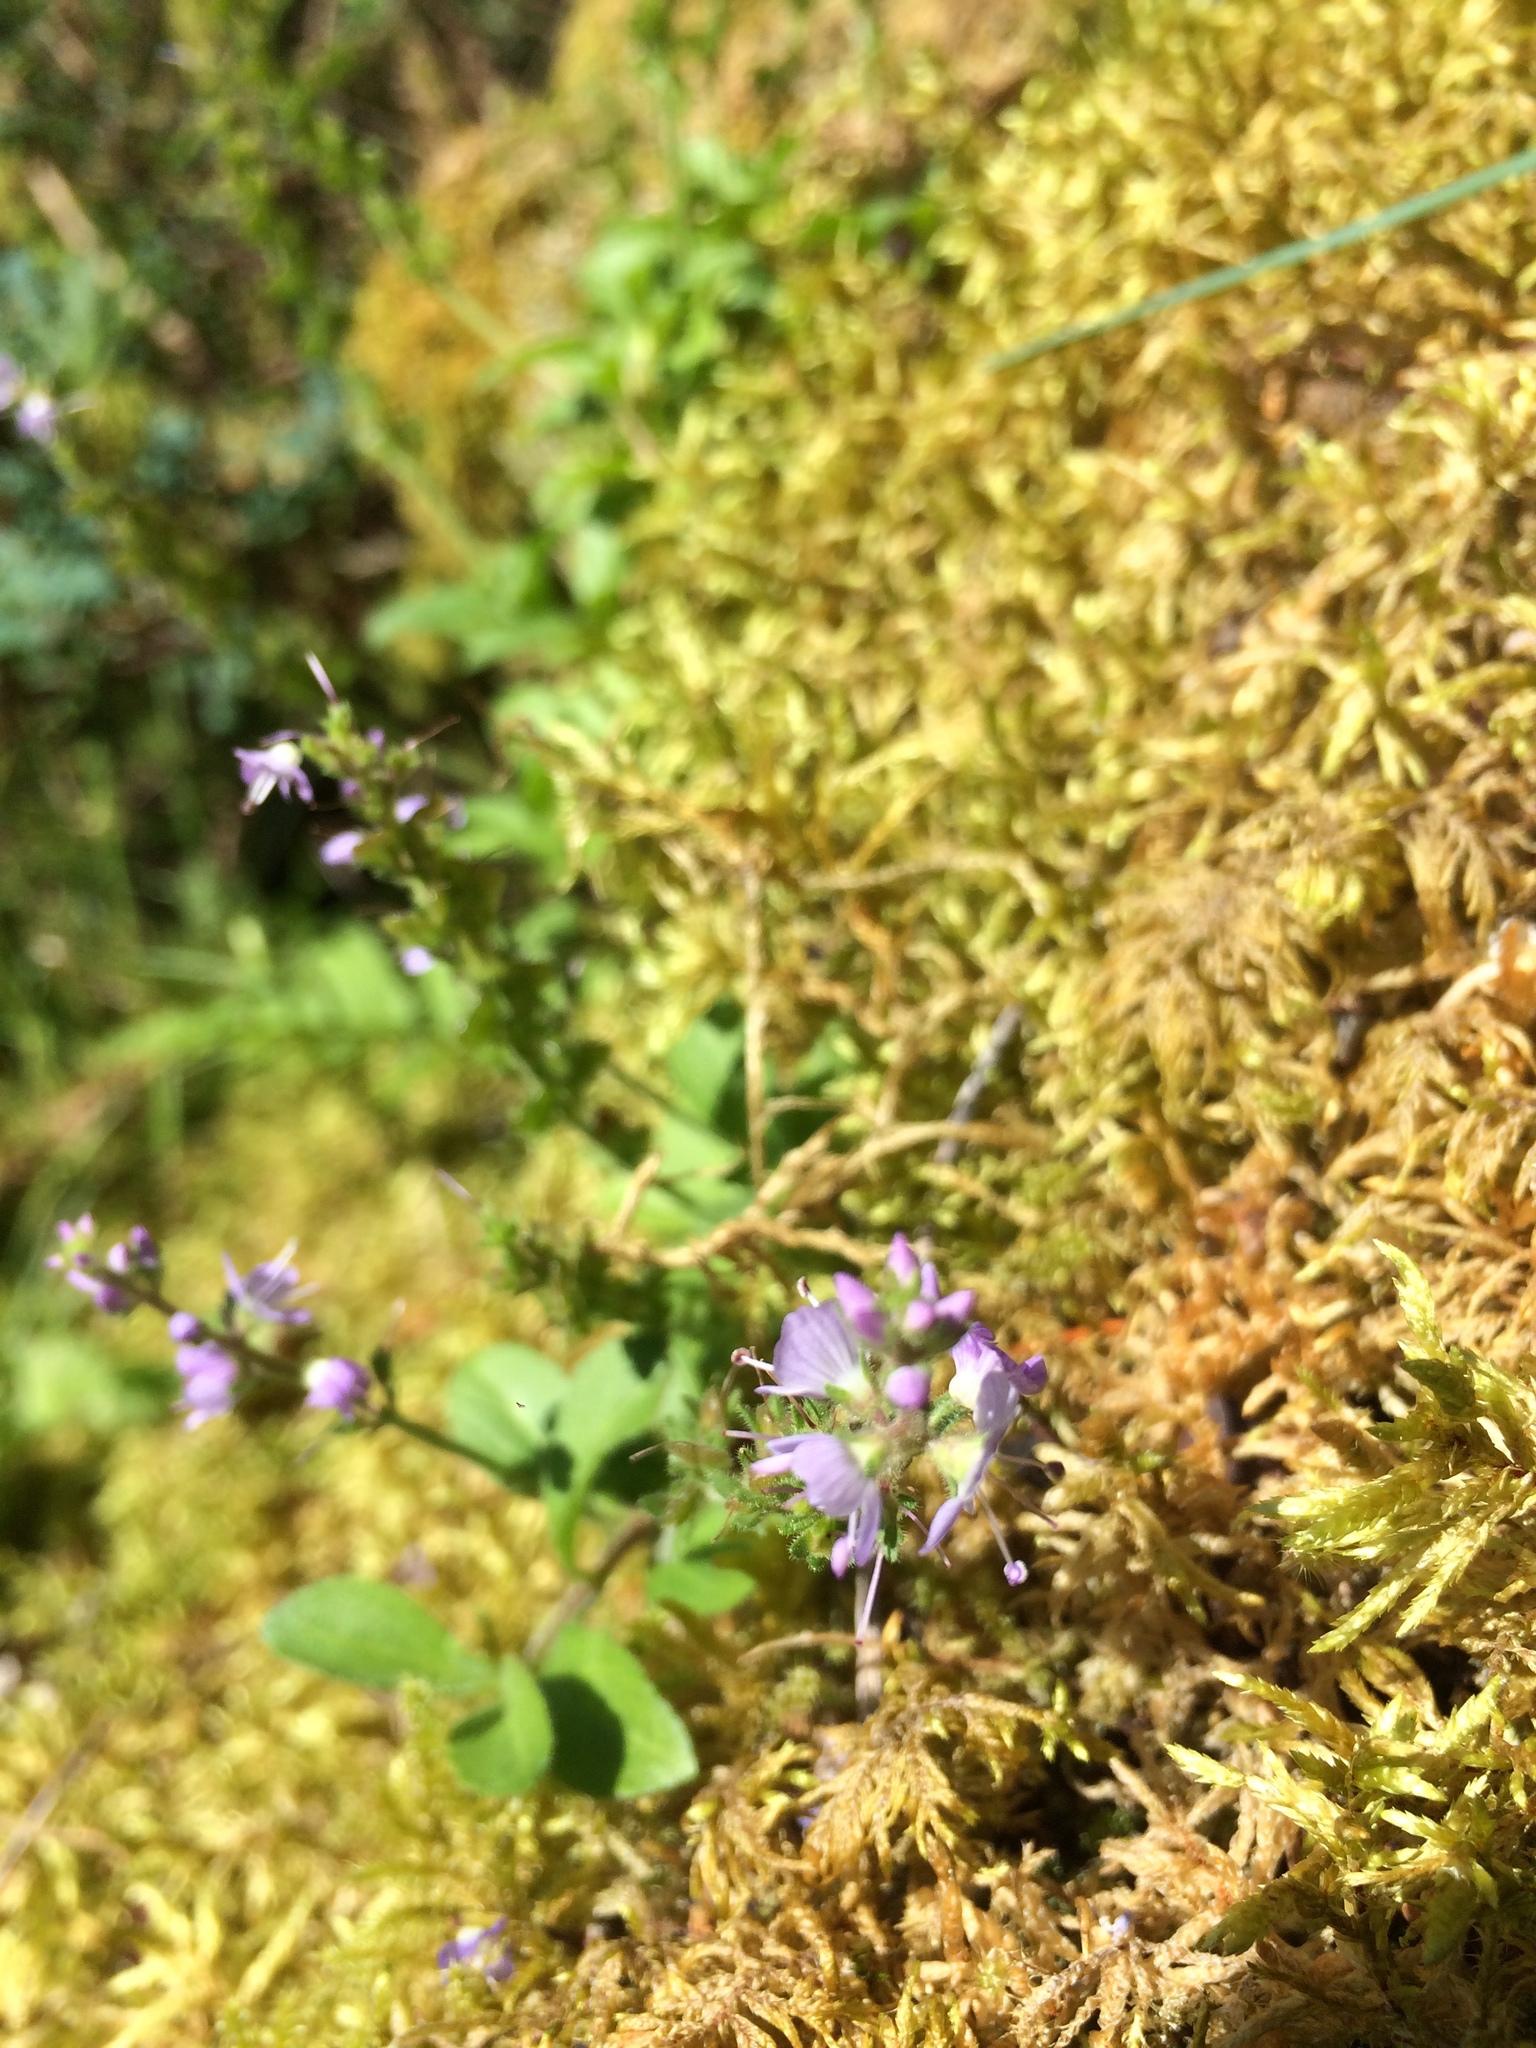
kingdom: Plantae
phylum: Tracheophyta
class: Magnoliopsida
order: Lamiales
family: Plantaginaceae
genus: Veronica
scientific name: Veronica officinalis
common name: Common speedwell
